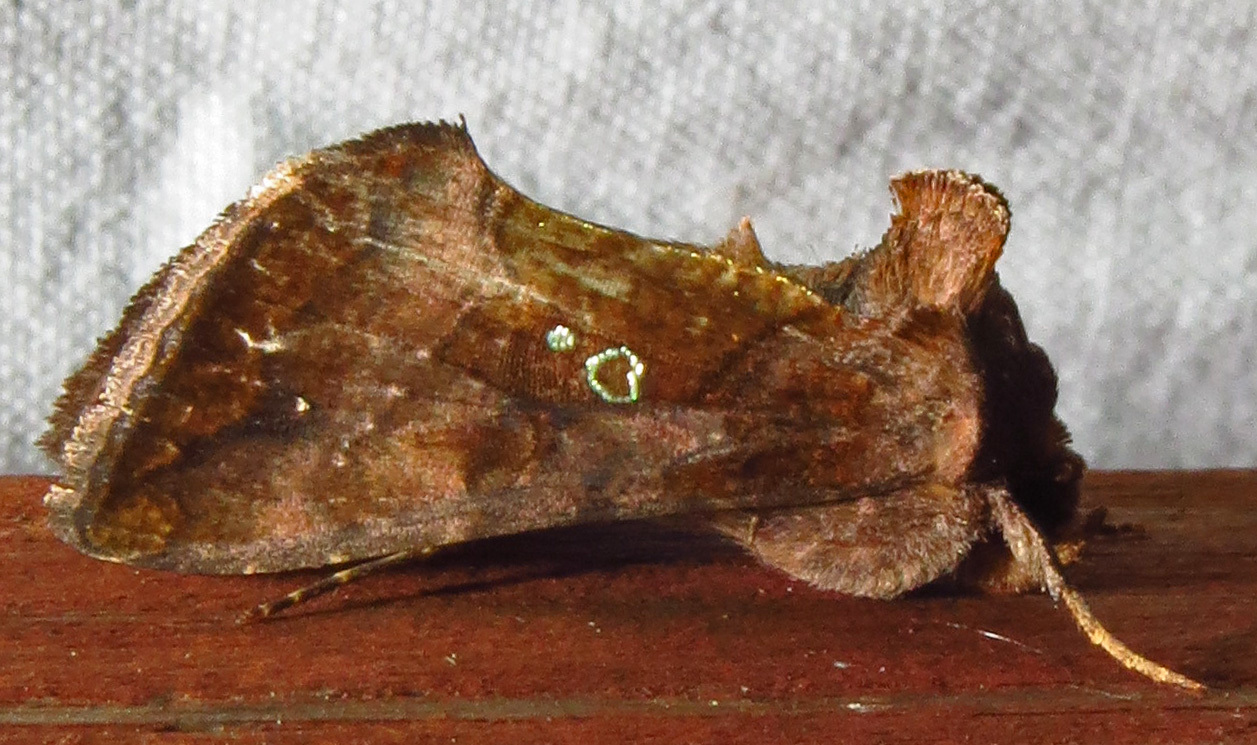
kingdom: Animalia
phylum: Arthropoda
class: Insecta
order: Lepidoptera
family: Noctuidae
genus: Argyrogramma
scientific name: Argyrogramma verruca
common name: Golden looper moth
